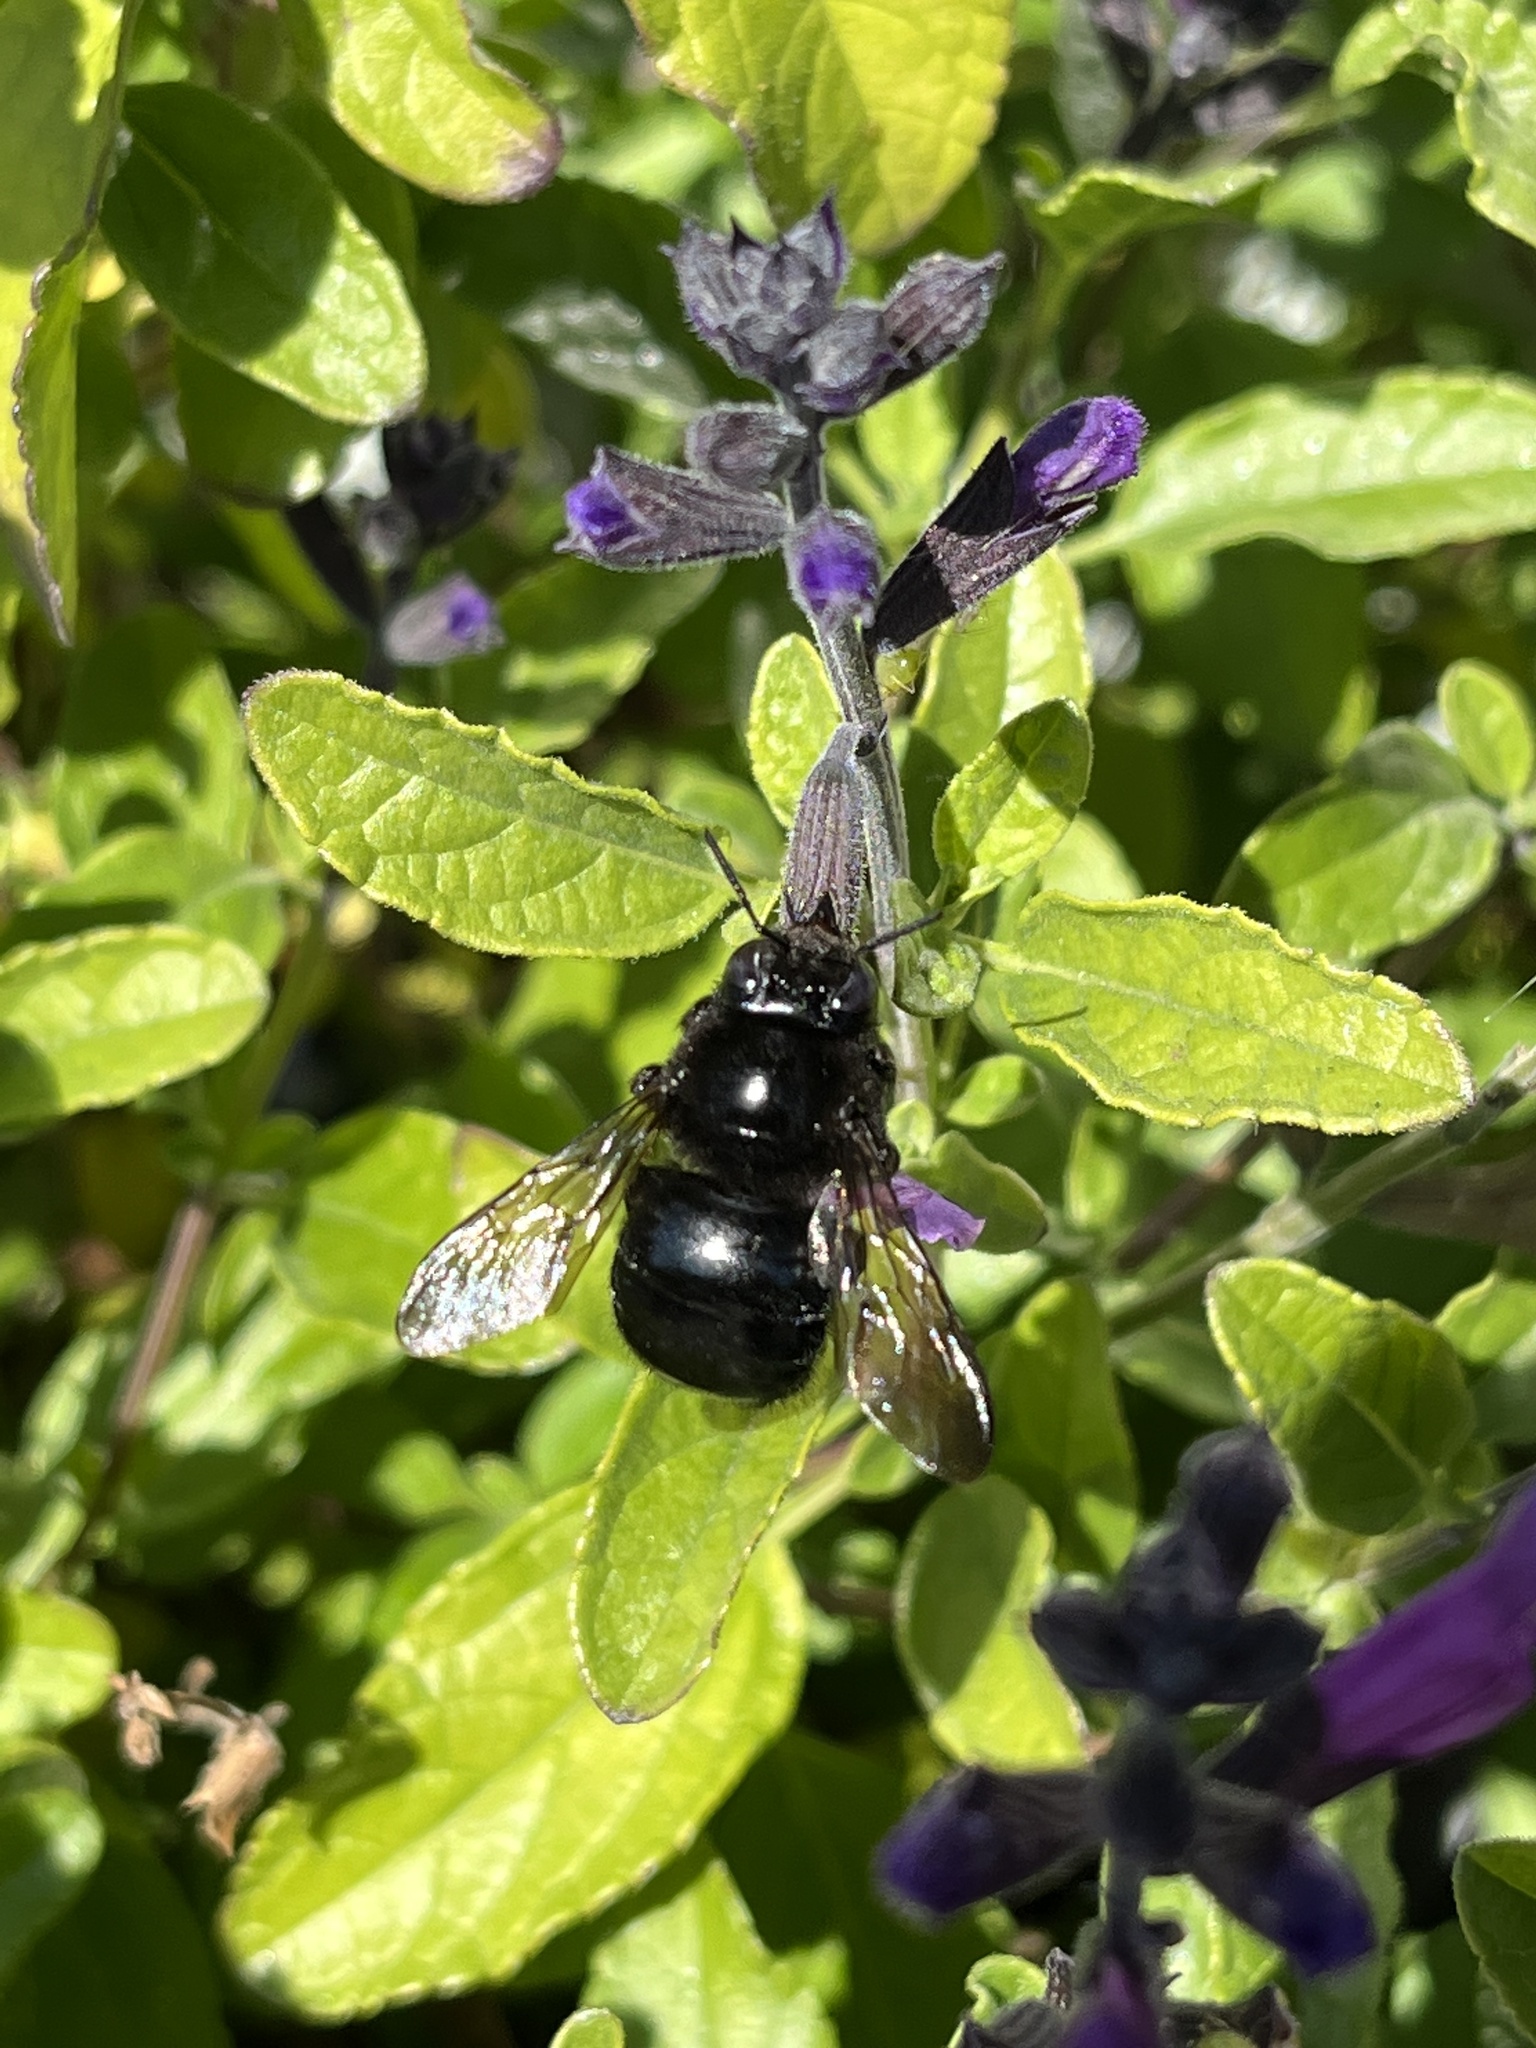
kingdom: Animalia
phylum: Arthropoda
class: Insecta
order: Hymenoptera
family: Apidae
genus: Xylocopa
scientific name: Xylocopa tabaniformis
